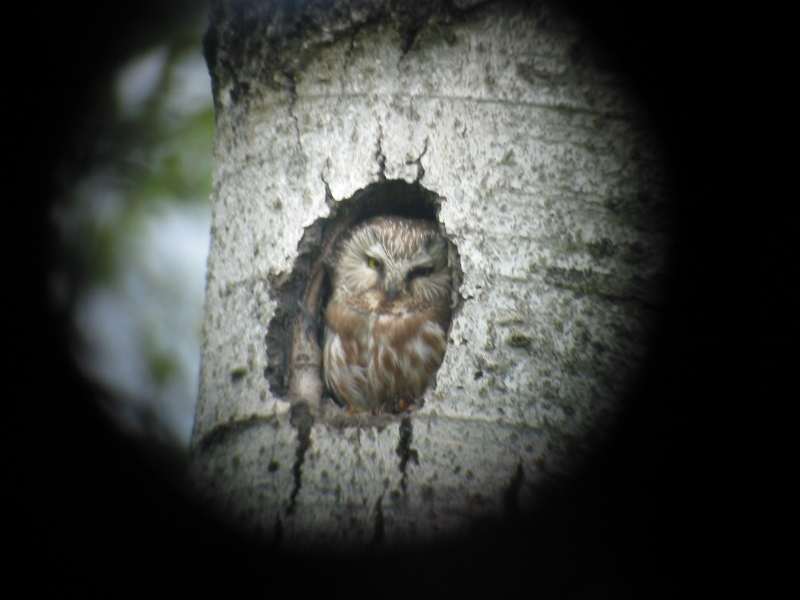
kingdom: Animalia
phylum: Chordata
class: Aves
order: Strigiformes
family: Strigidae
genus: Aegolius
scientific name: Aegolius acadicus
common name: Northern saw-whet owl
